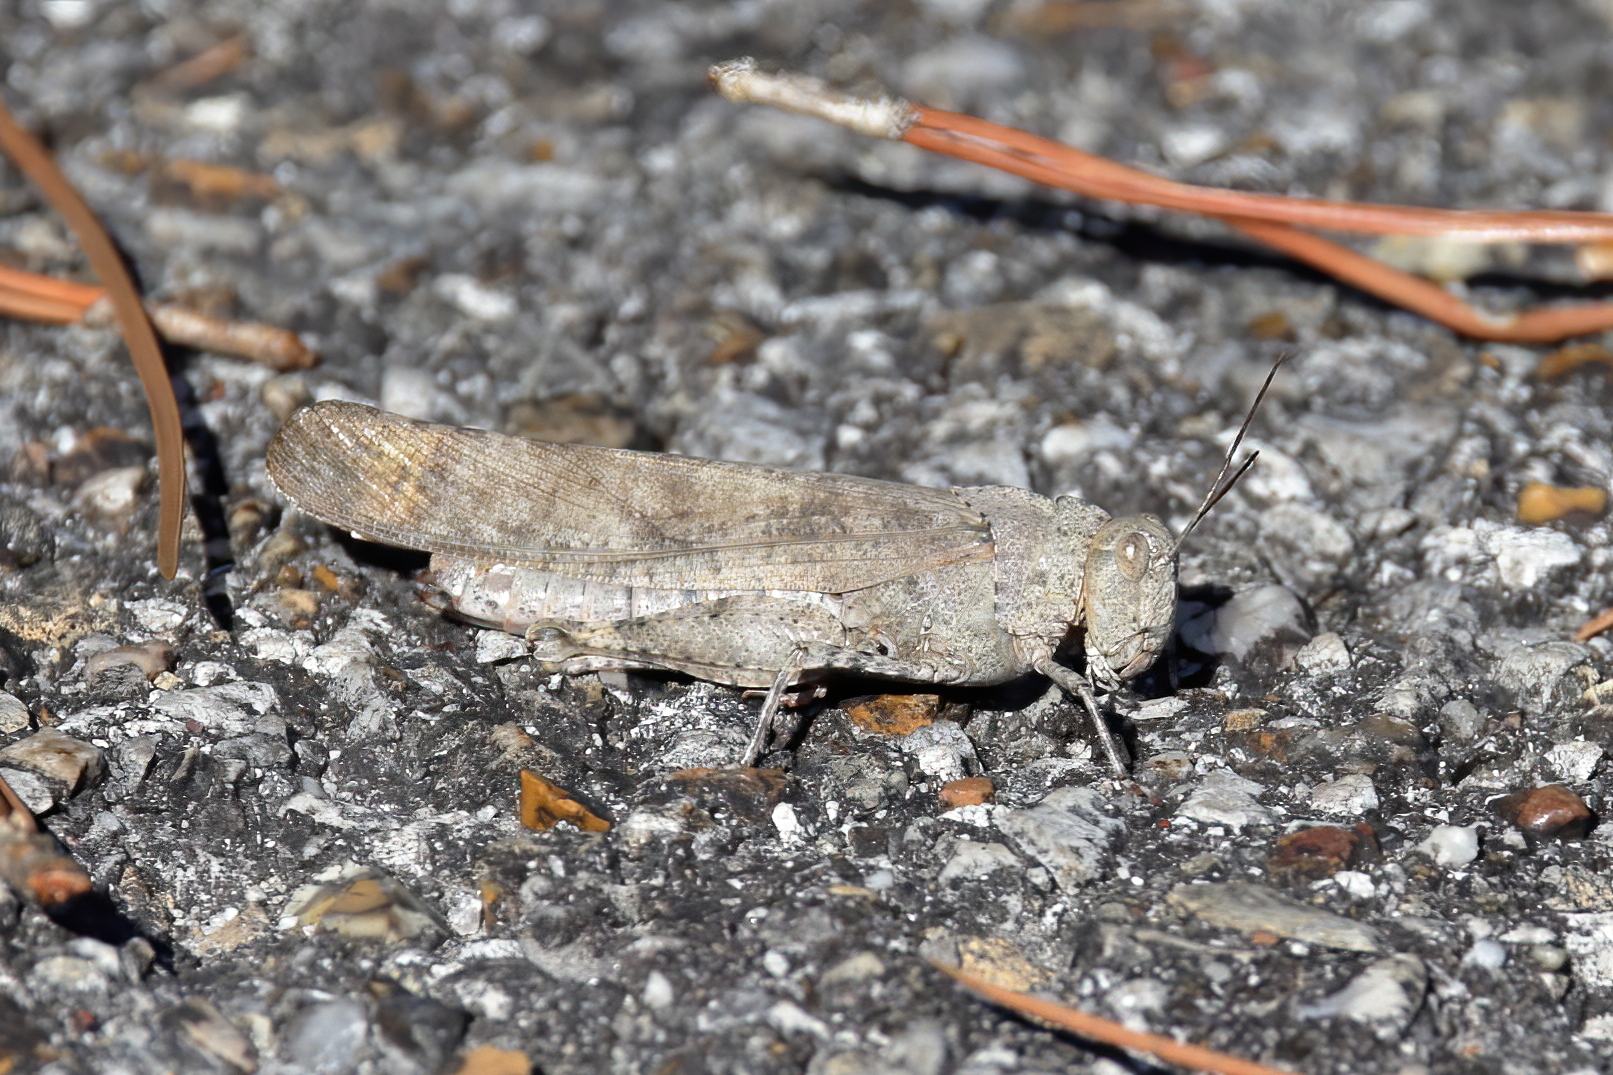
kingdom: Animalia
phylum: Arthropoda
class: Insecta
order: Orthoptera
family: Acrididae
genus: Dissosteira
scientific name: Dissosteira carolina
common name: Carolina grasshopper
